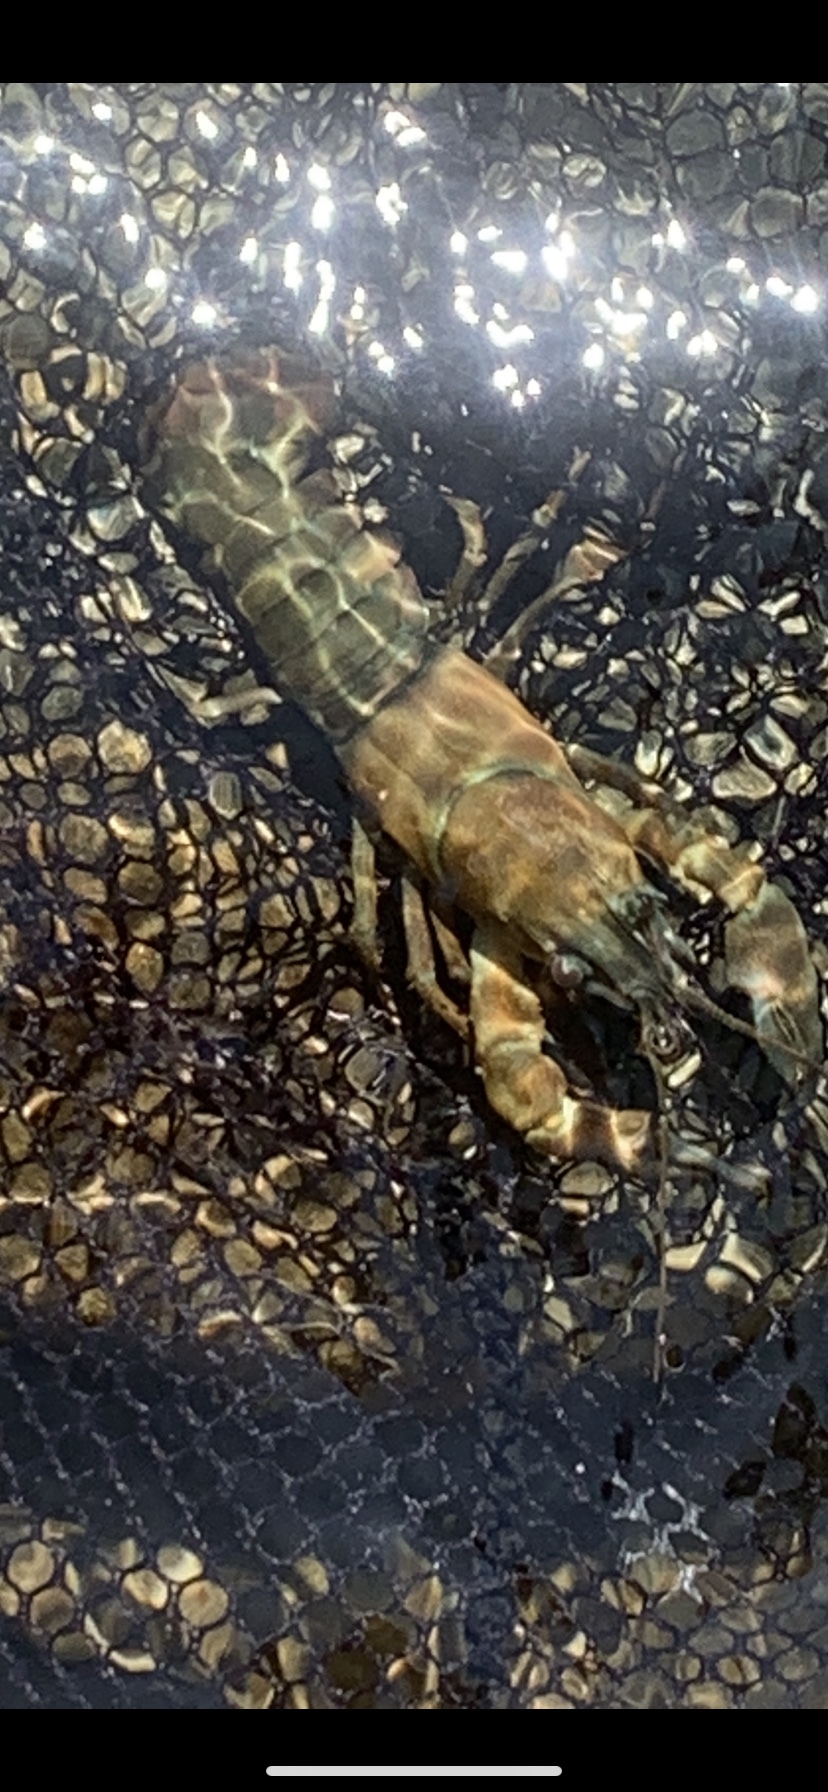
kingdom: Animalia
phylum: Arthropoda
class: Malacostraca
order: Decapoda
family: Astacidae
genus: Pacifastacus
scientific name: Pacifastacus leniusculus
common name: Signal crayfish
